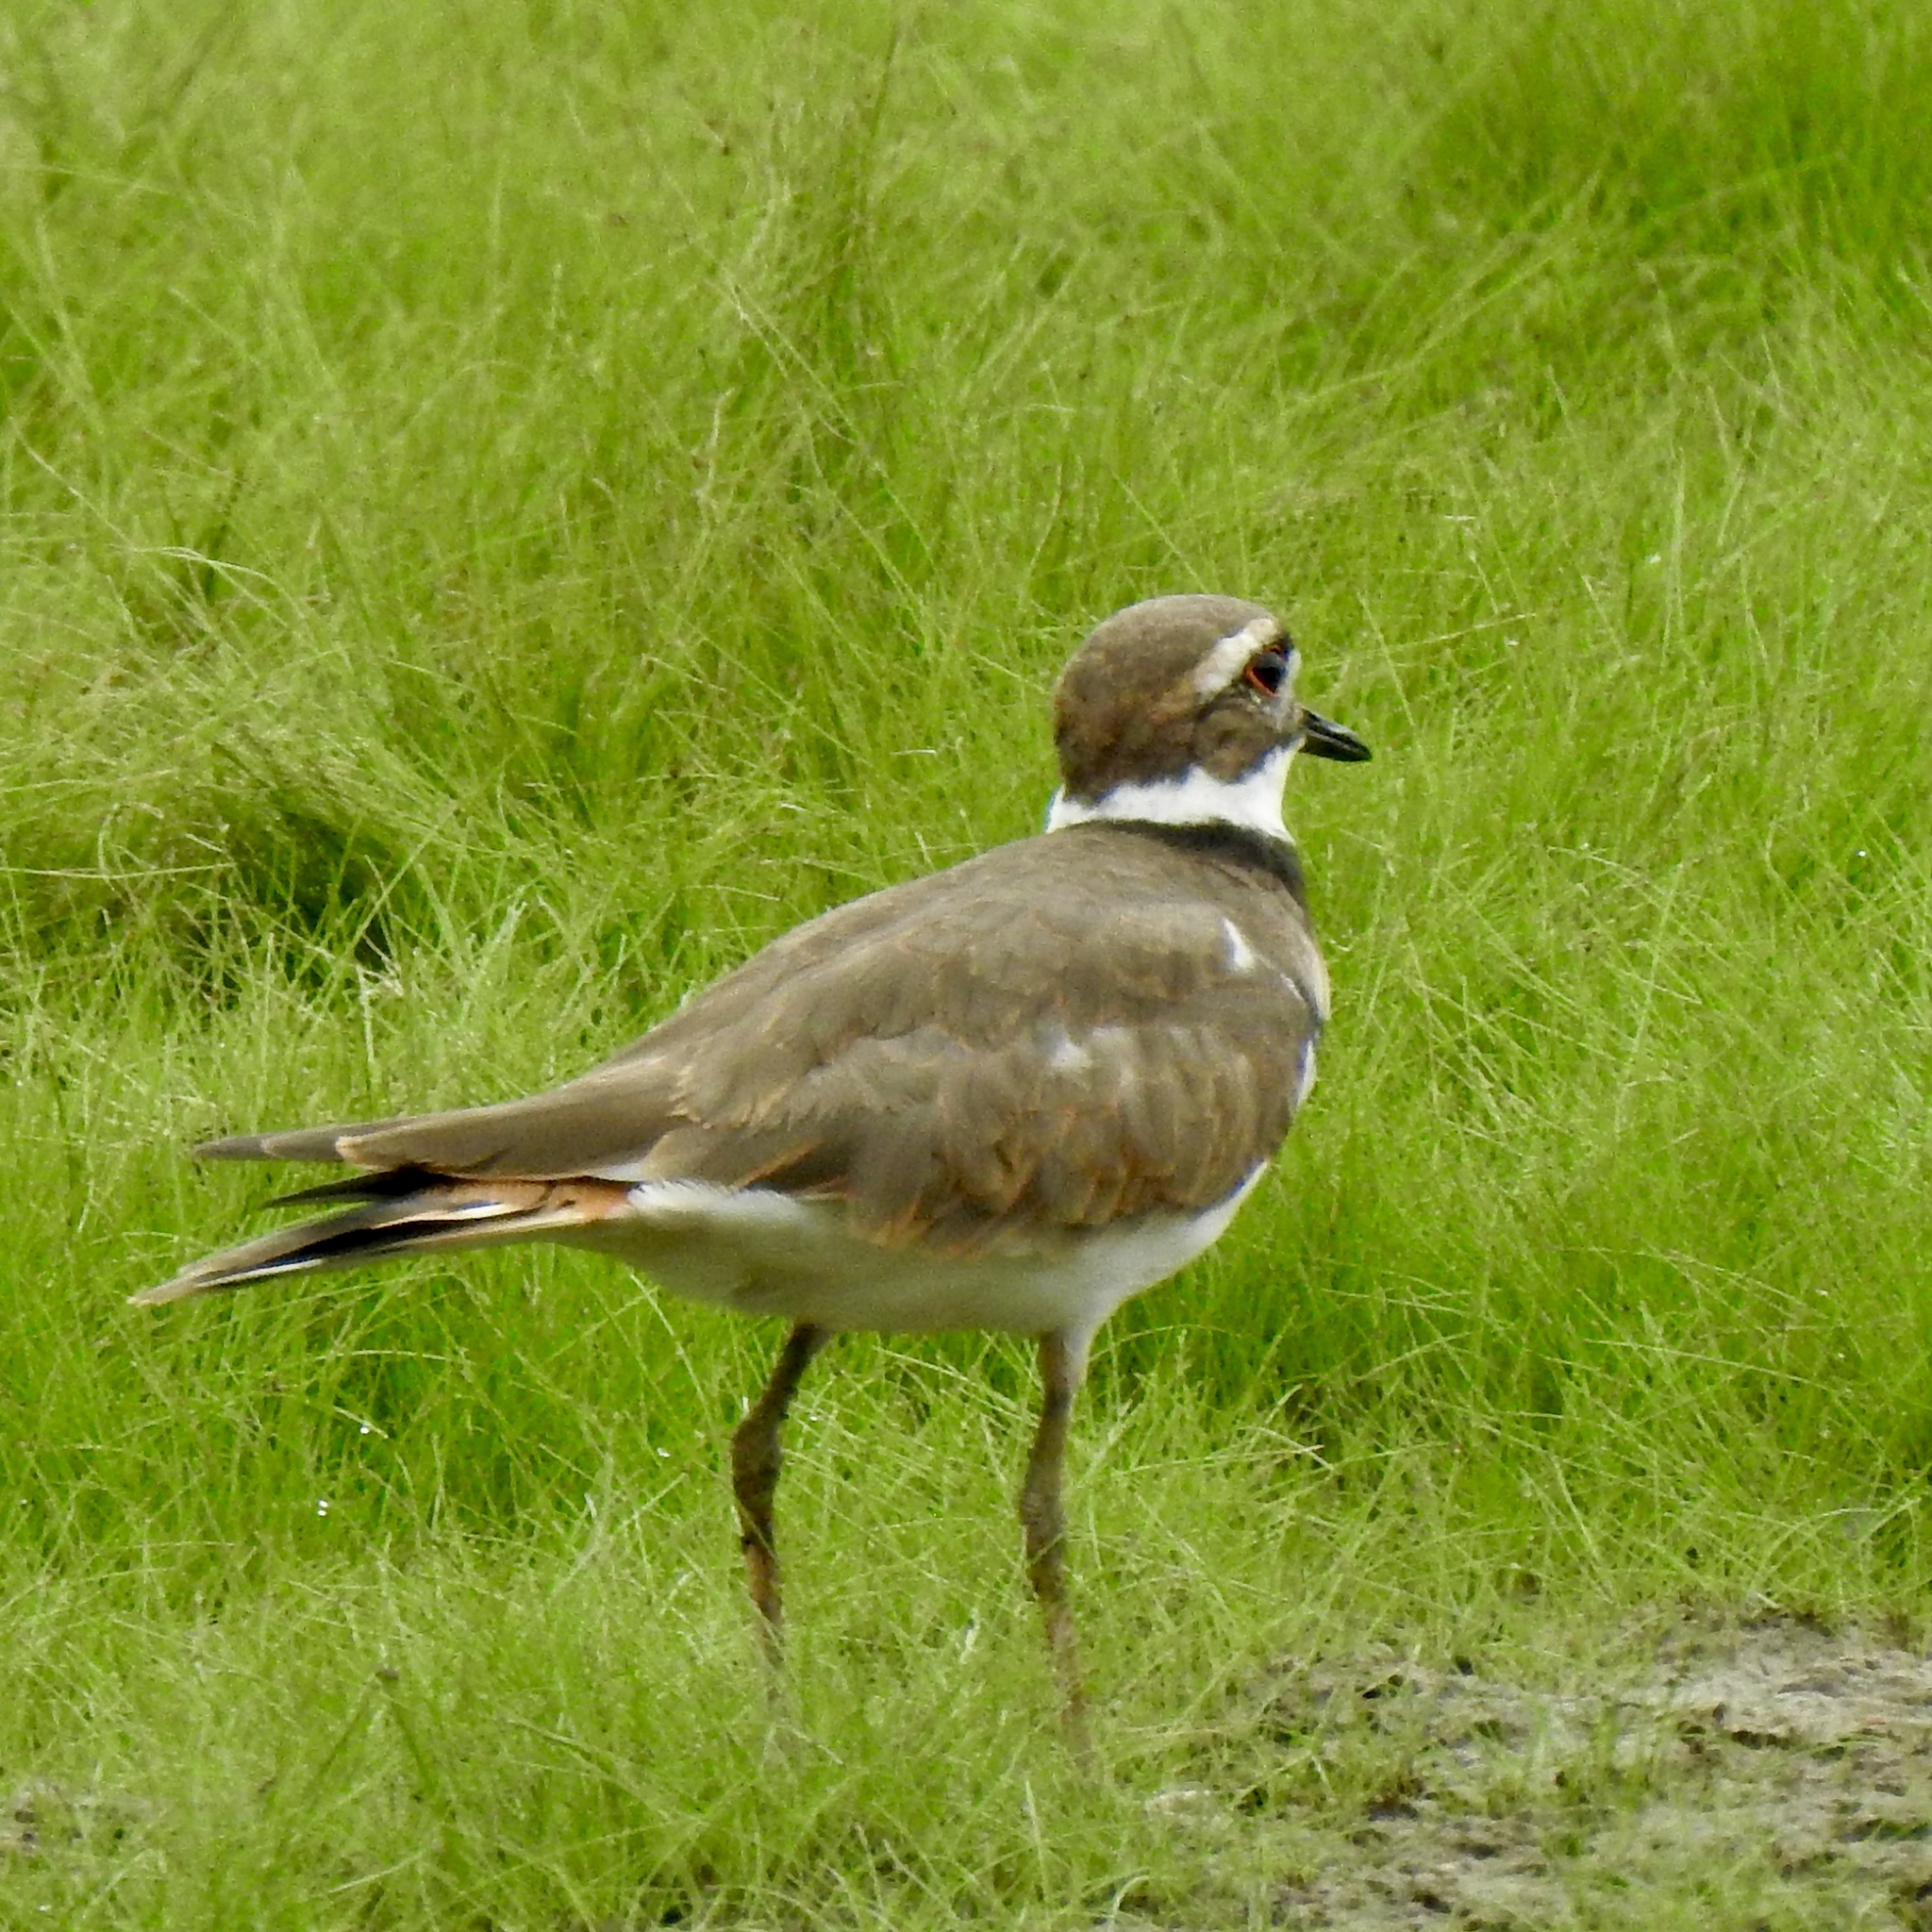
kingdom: Animalia
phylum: Chordata
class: Aves
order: Charadriiformes
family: Charadriidae
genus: Charadrius
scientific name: Charadrius vociferus
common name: Killdeer
